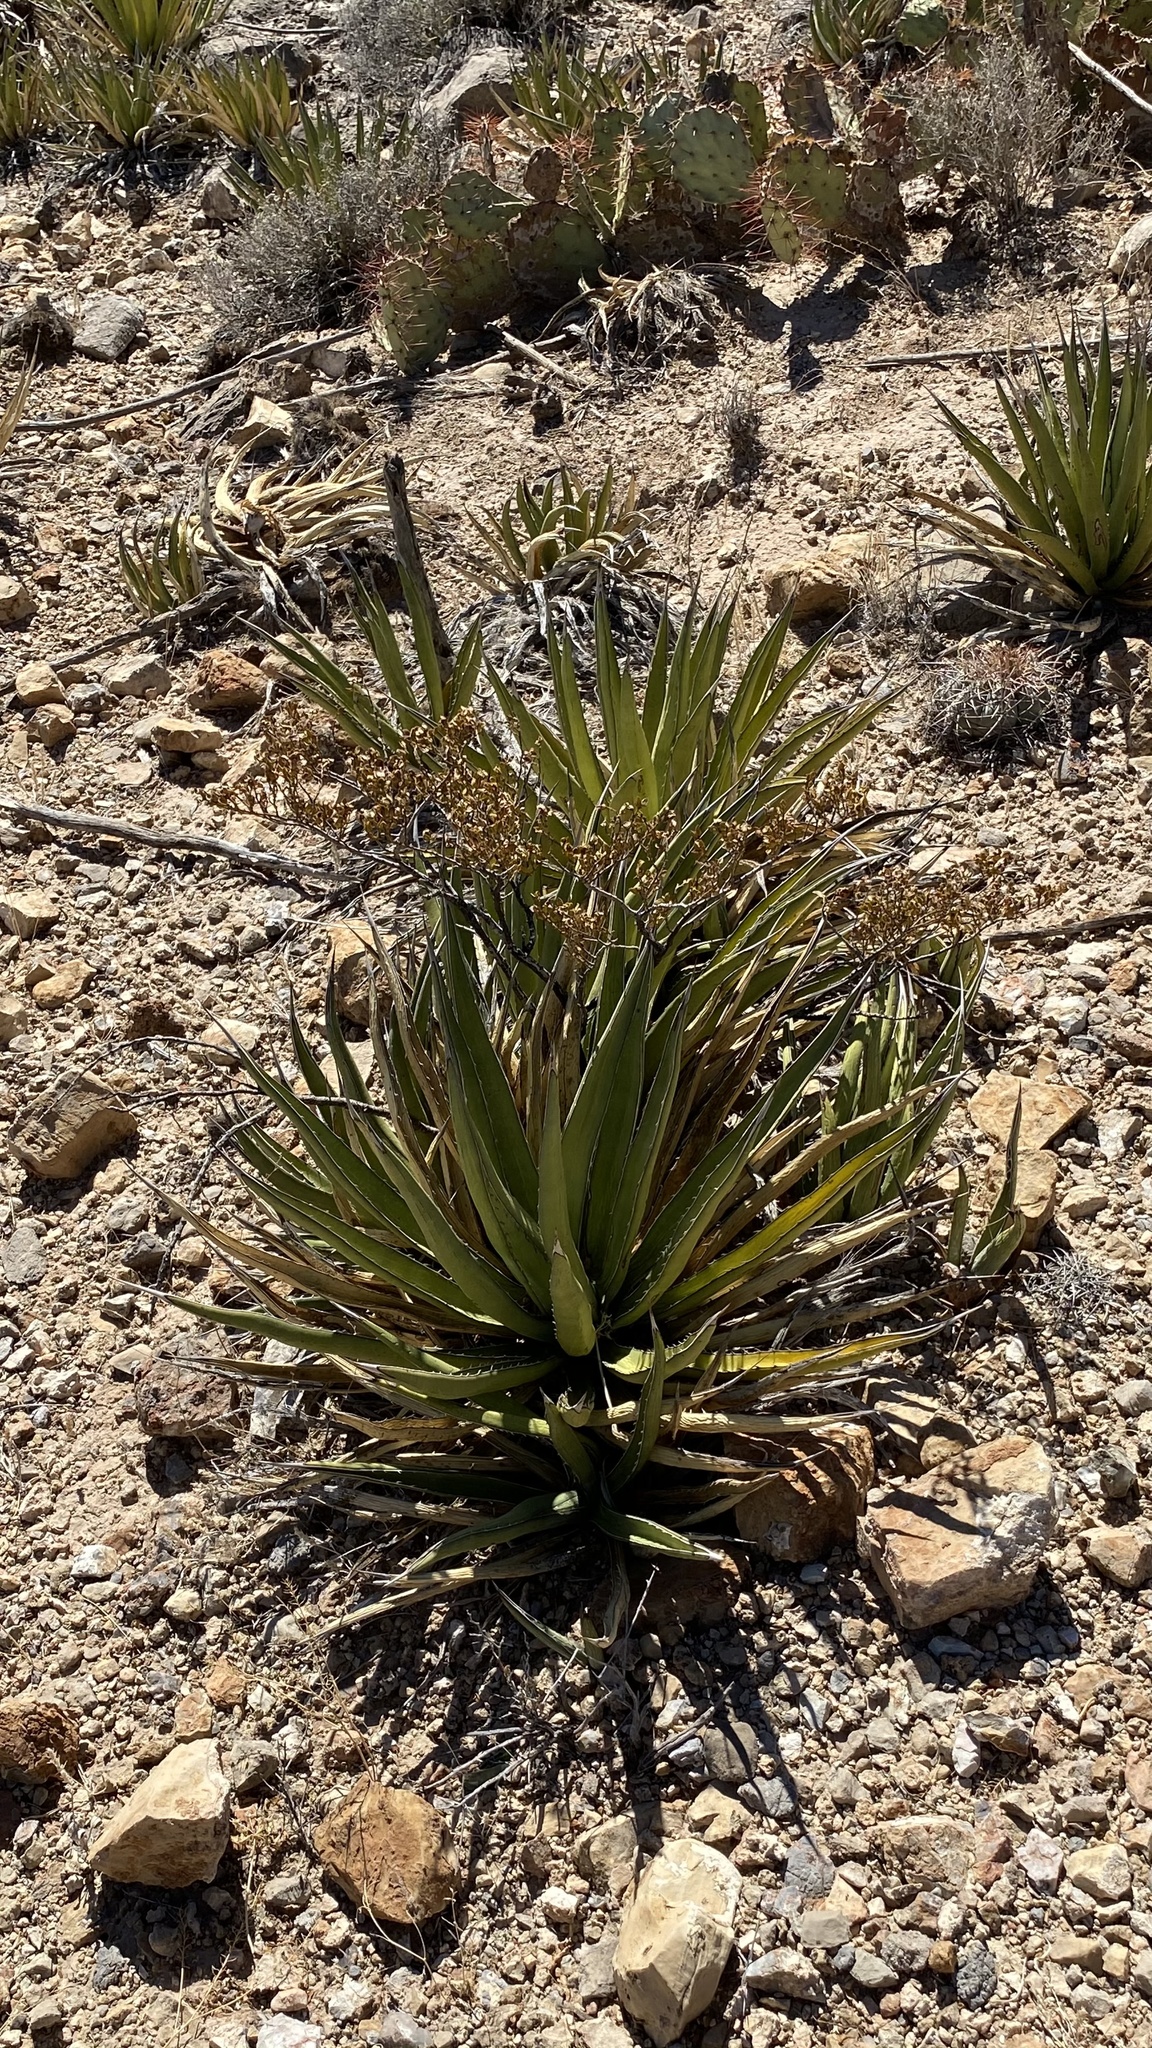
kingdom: Plantae
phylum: Tracheophyta
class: Liliopsida
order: Asparagales
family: Asparagaceae
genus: Agave
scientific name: Agave lechuguilla
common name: Lecheguilla agave
